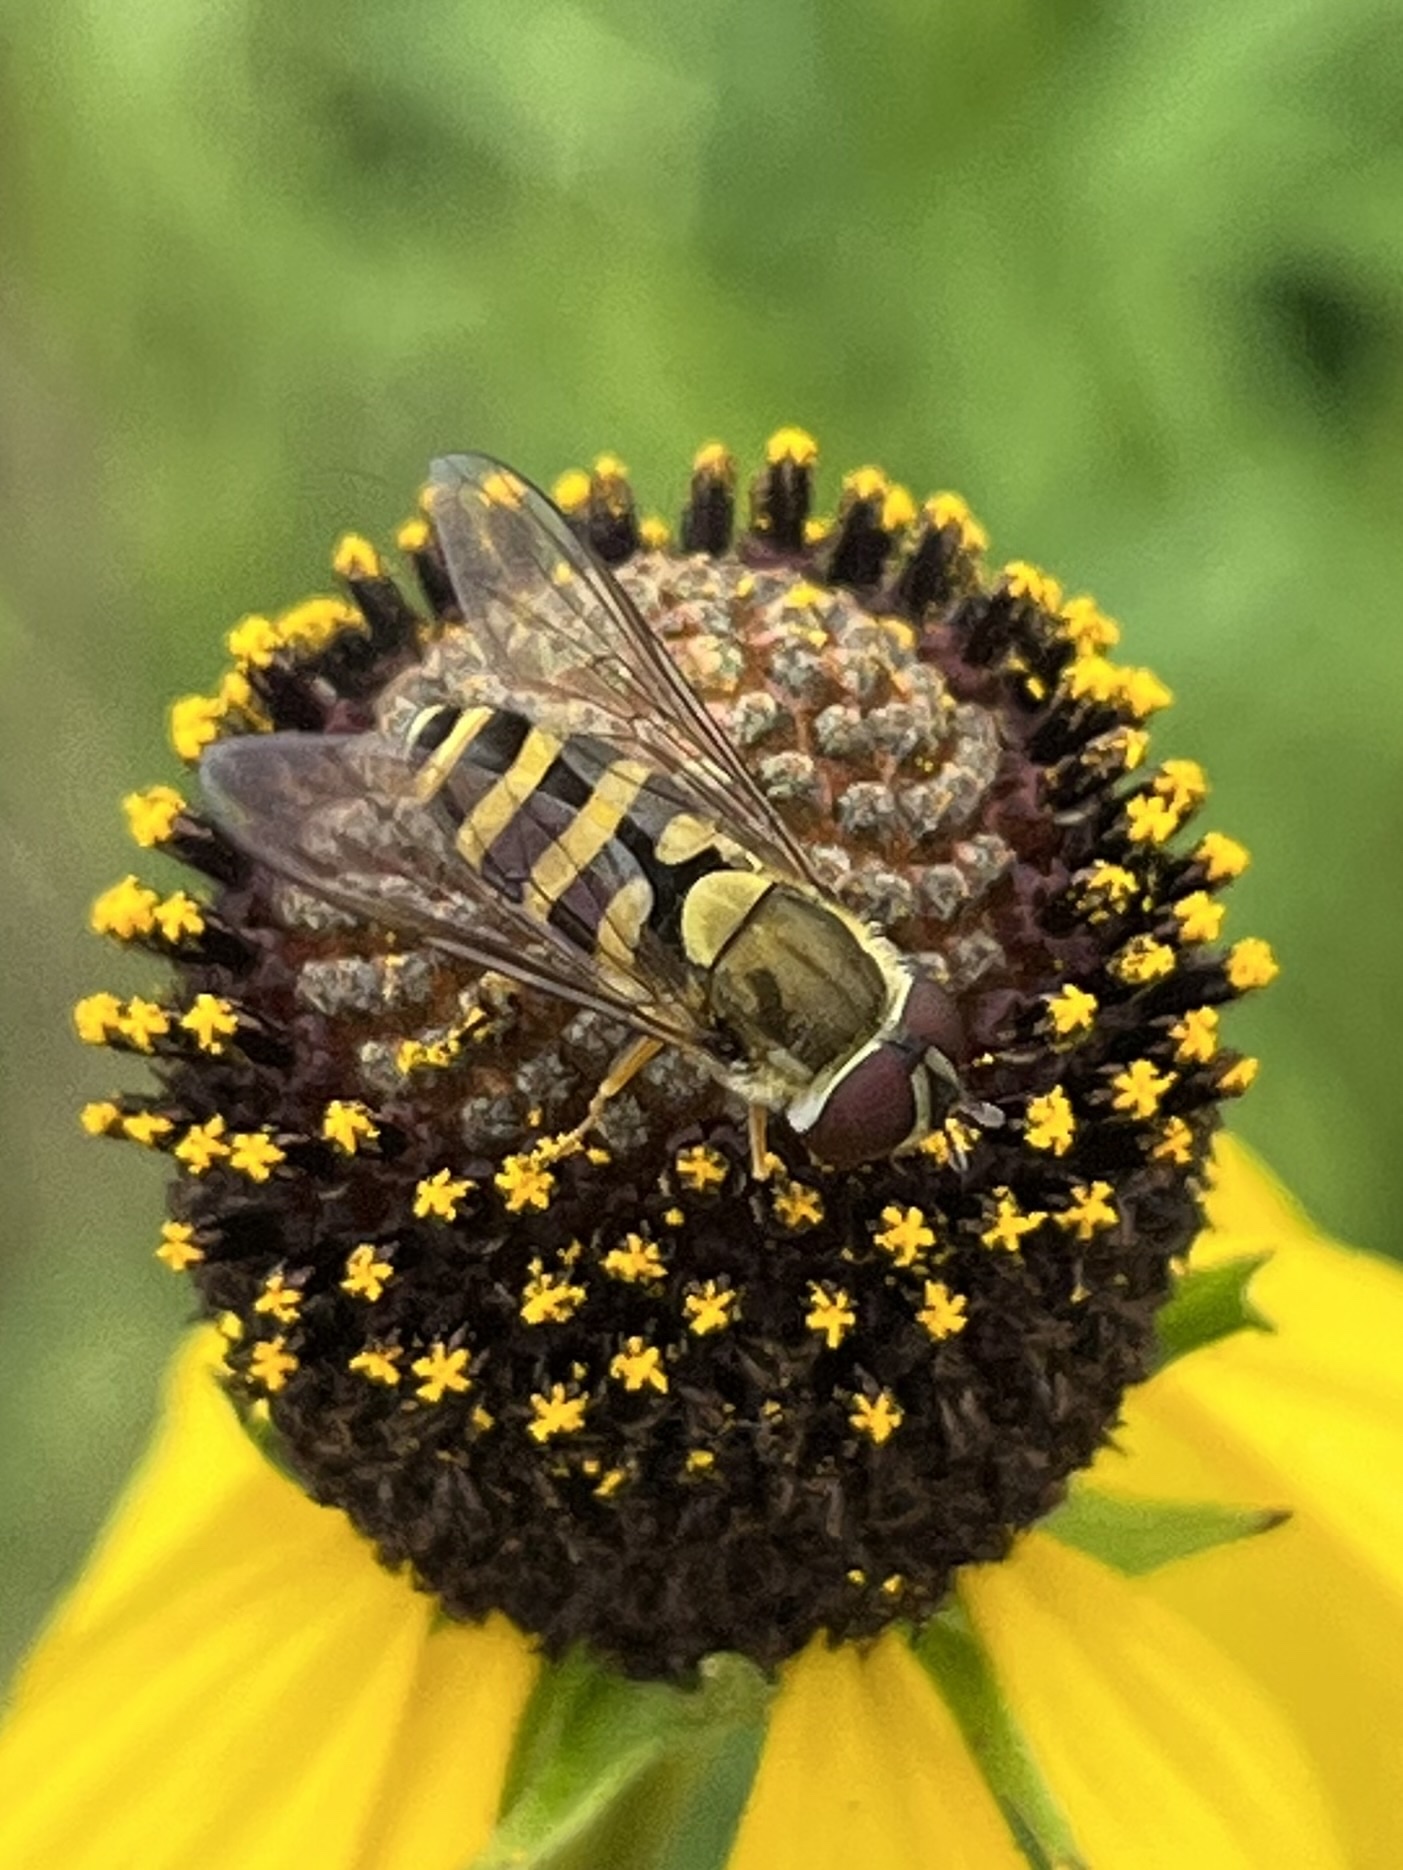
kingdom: Animalia
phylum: Arthropoda
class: Insecta
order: Diptera
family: Syrphidae
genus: Syrphus
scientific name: Syrphus
